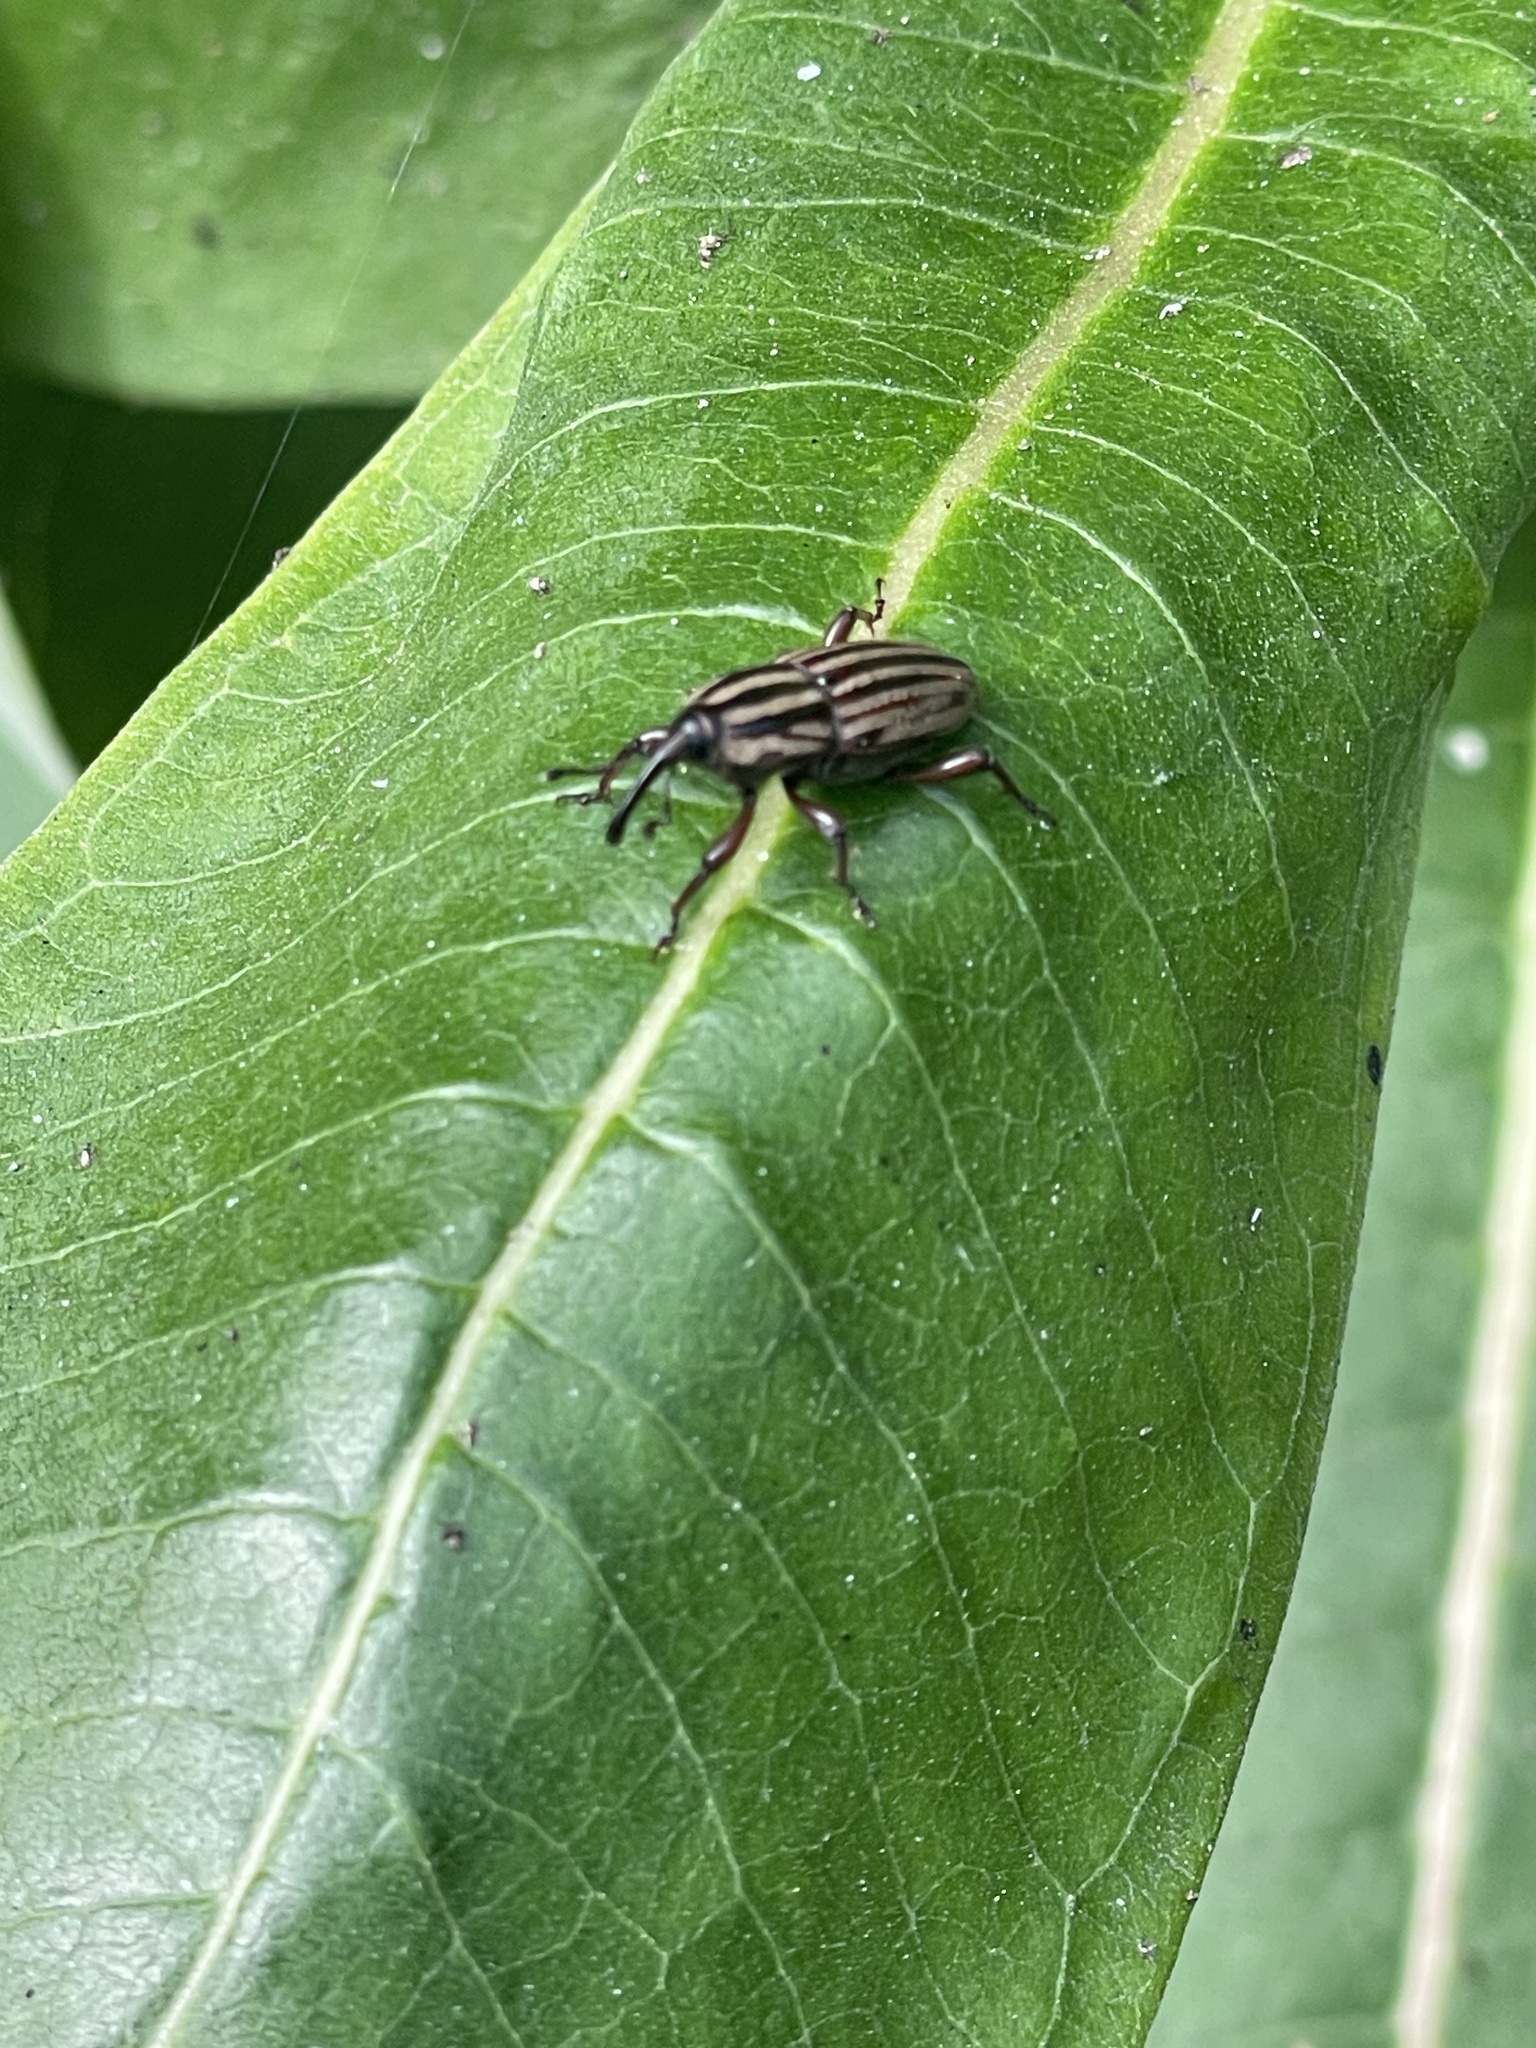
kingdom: Animalia
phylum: Arthropoda
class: Insecta
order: Coleoptera
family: Dryophthoridae
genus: Sphenophorus
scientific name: Sphenophorus villosiventris
